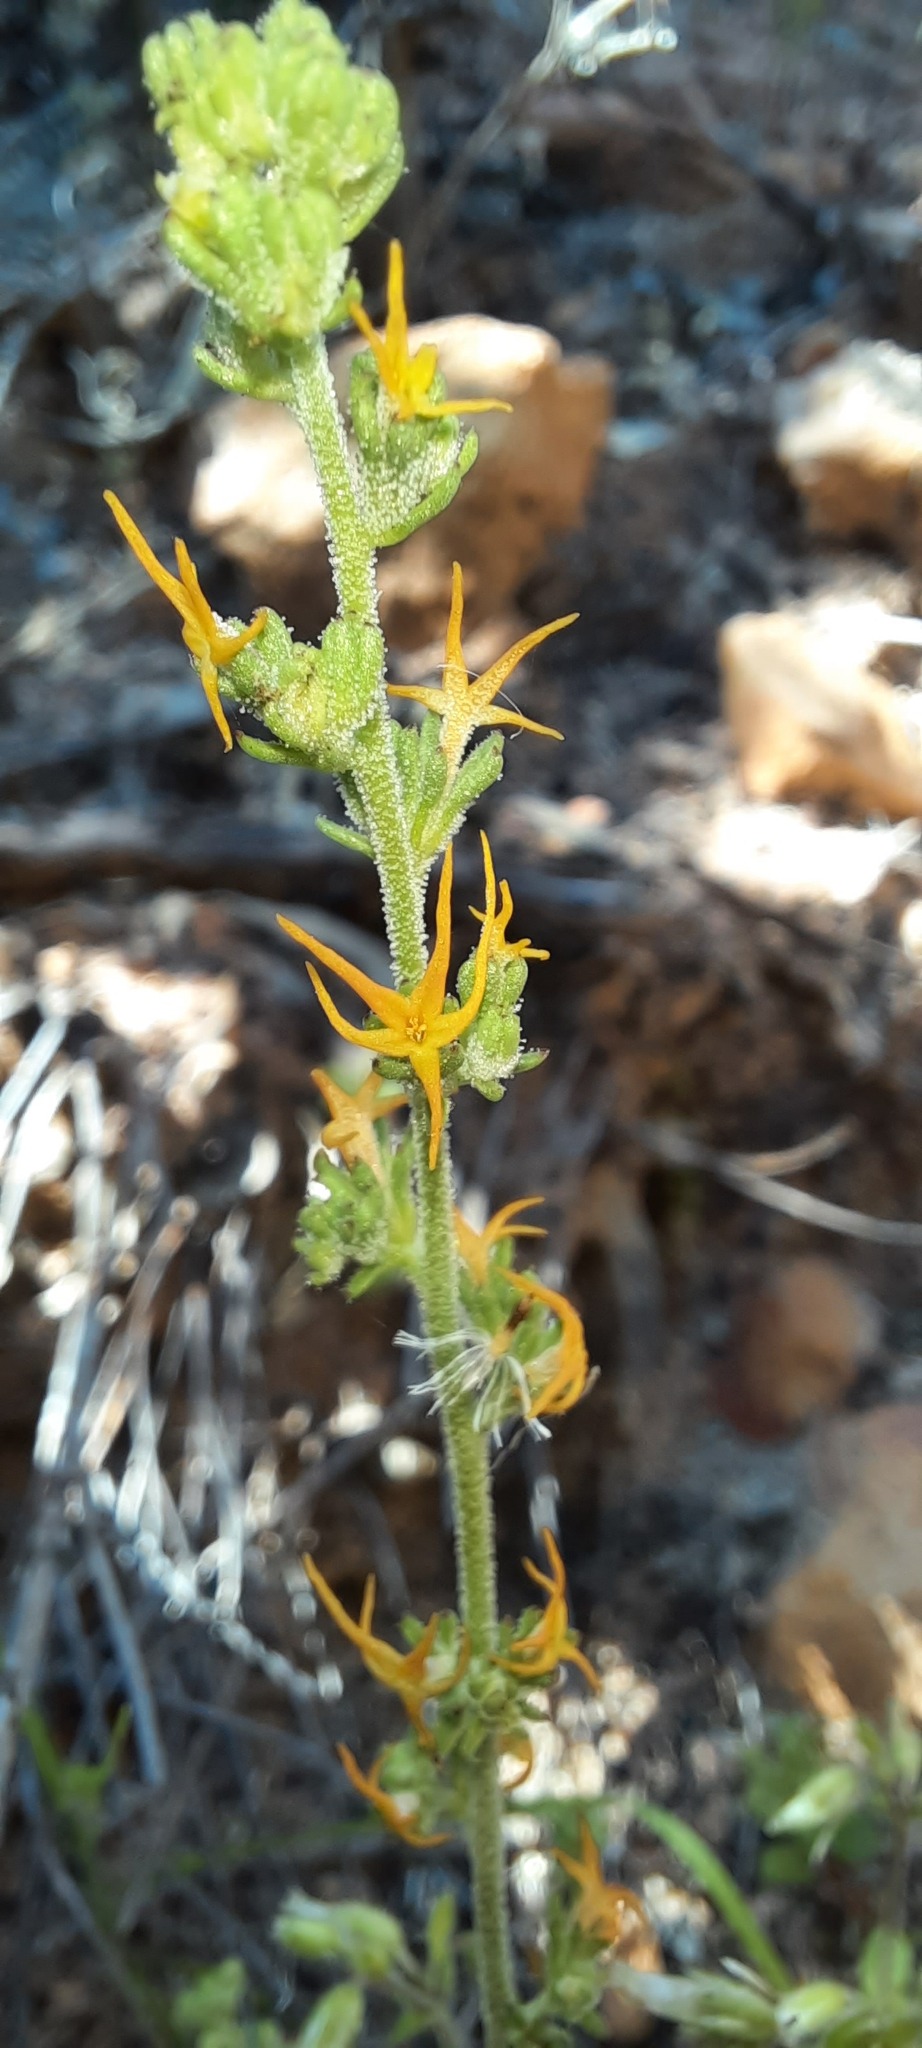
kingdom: Plantae
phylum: Tracheophyta
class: Magnoliopsida
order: Lamiales
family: Scrophulariaceae
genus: Manulea
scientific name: Manulea cheiranthus
